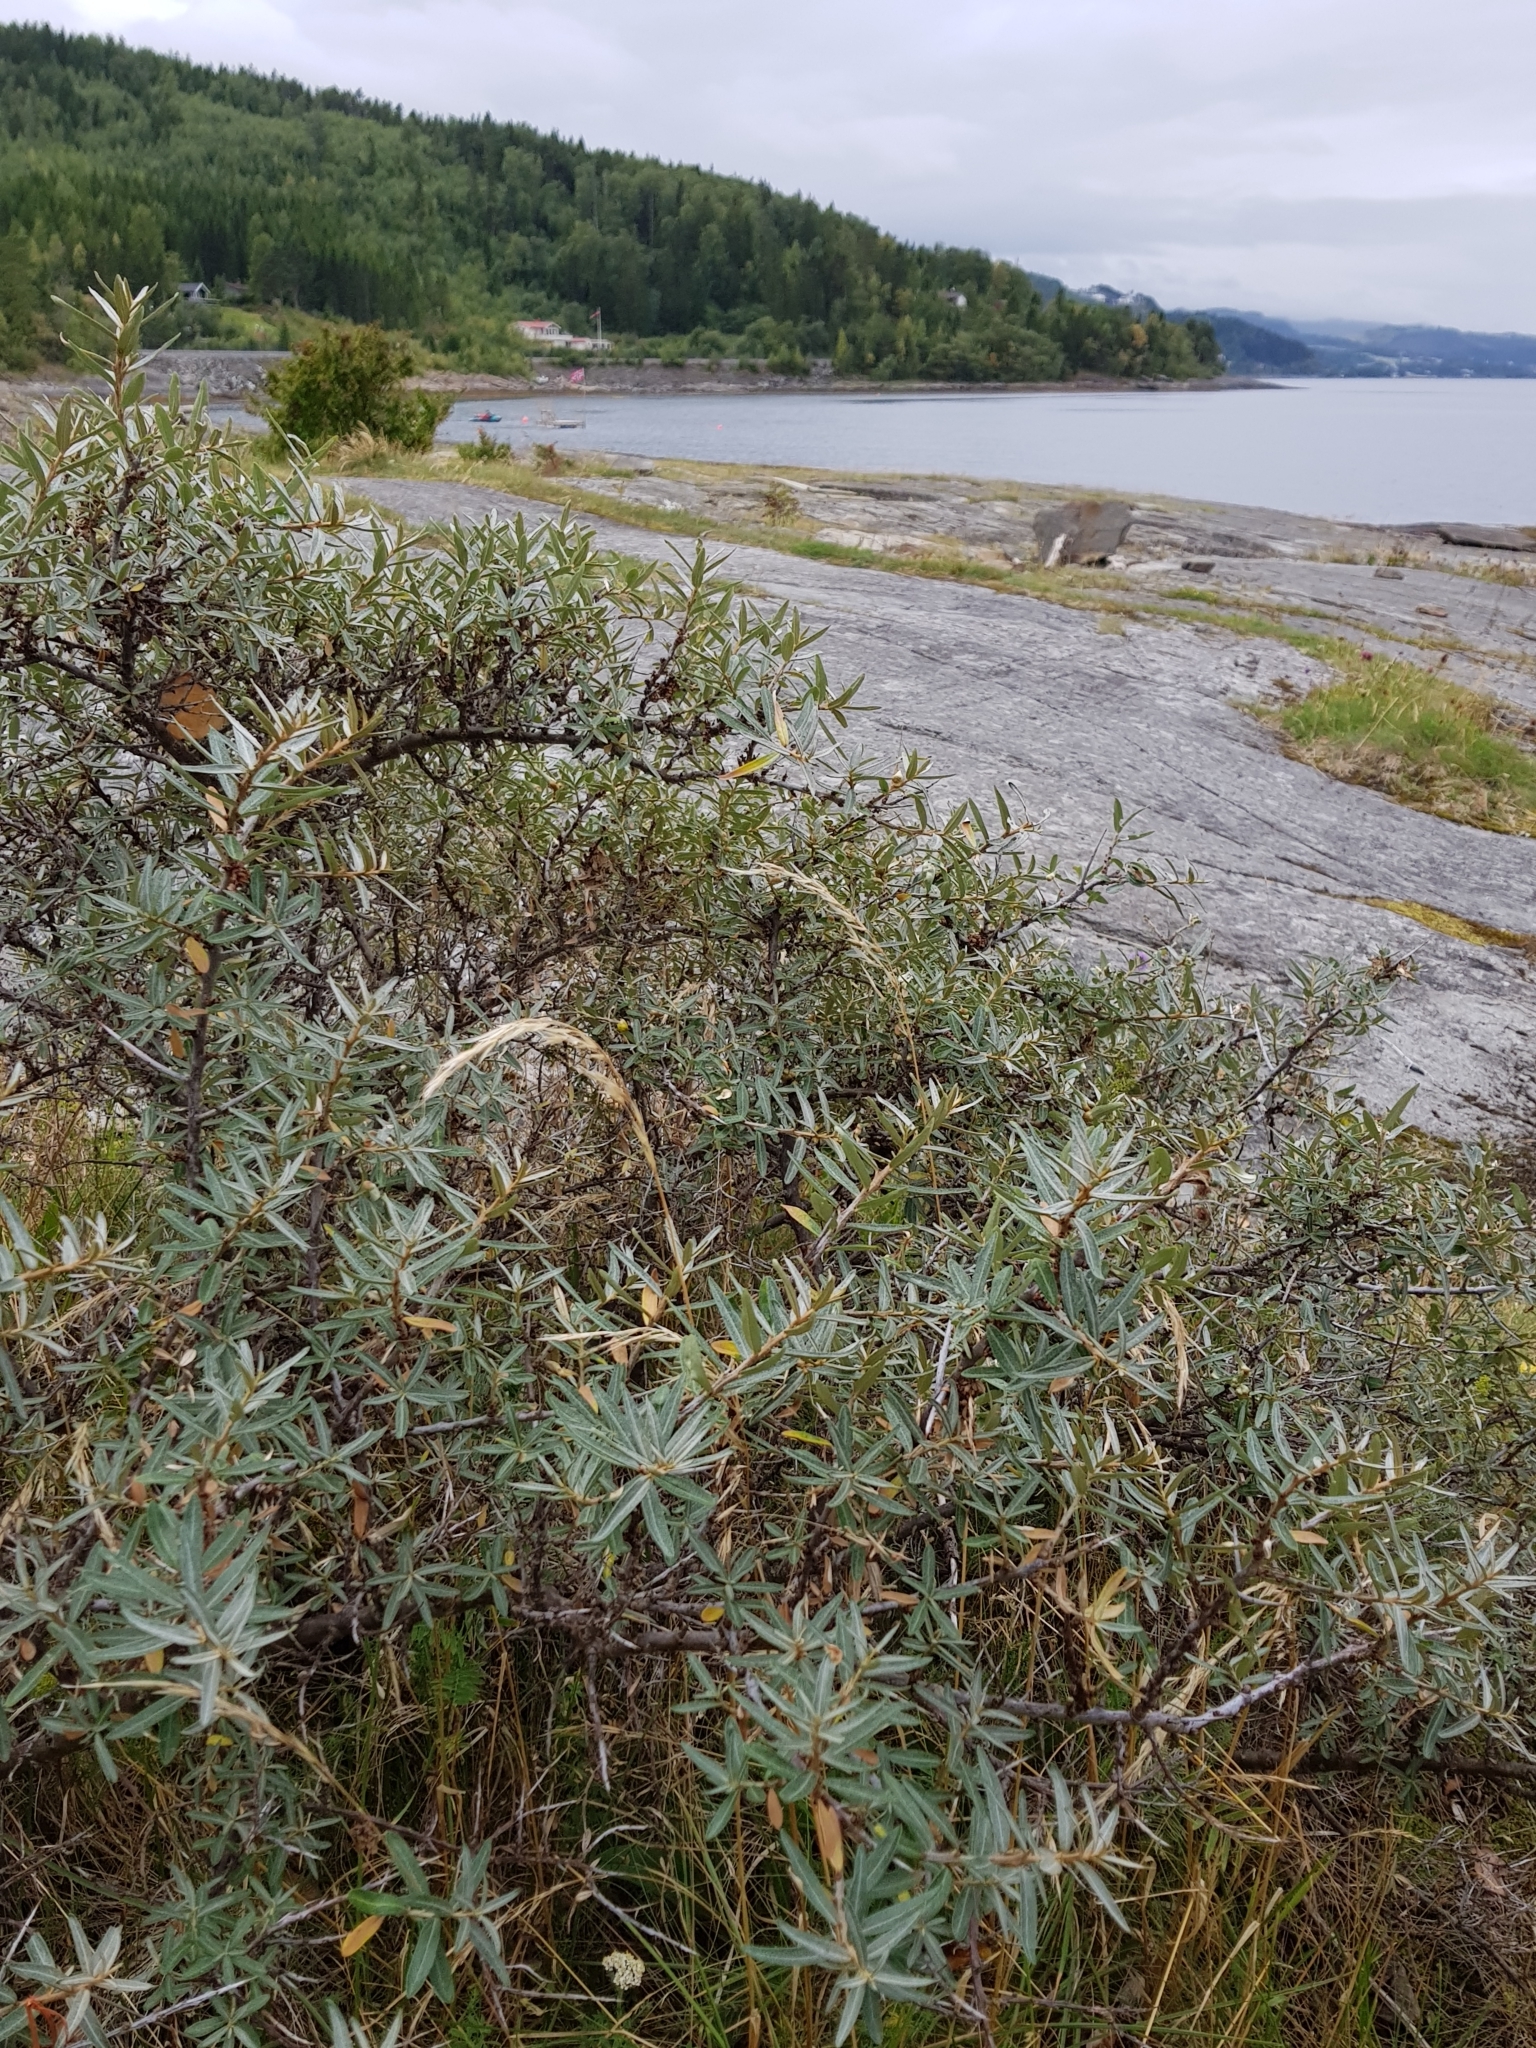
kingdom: Plantae
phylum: Tracheophyta
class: Magnoliopsida
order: Rosales
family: Elaeagnaceae
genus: Hippophae
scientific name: Hippophae rhamnoides
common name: Sea-buckthorn
